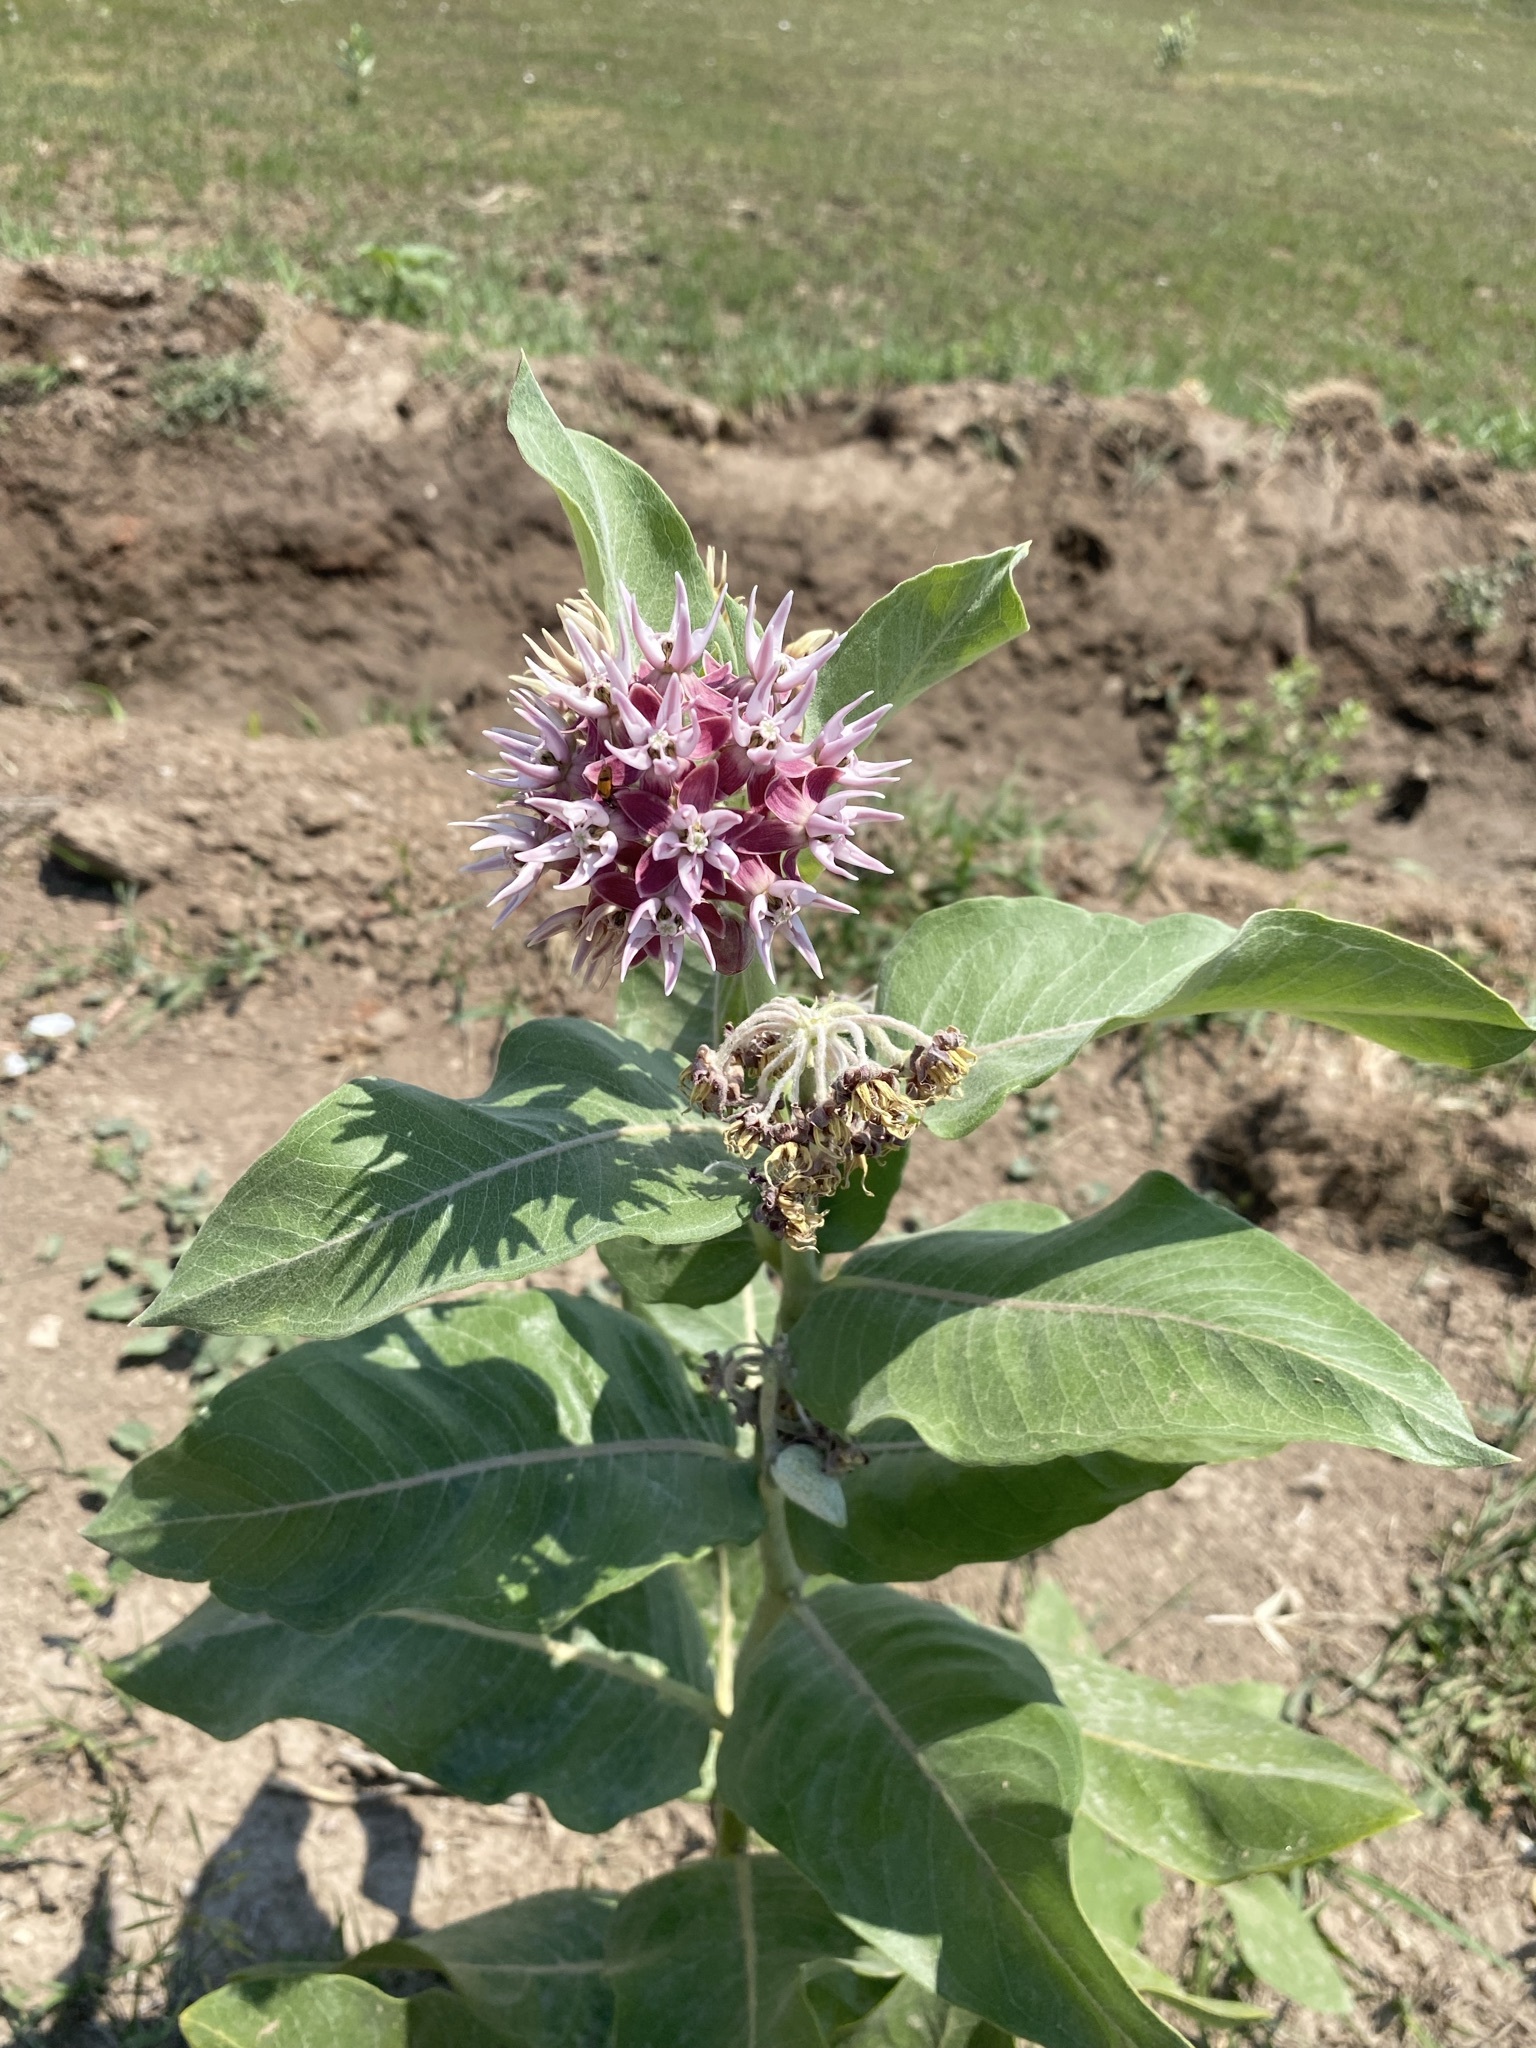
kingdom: Plantae
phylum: Tracheophyta
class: Magnoliopsida
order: Gentianales
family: Apocynaceae
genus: Asclepias
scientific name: Asclepias speciosa
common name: Showy milkweed
